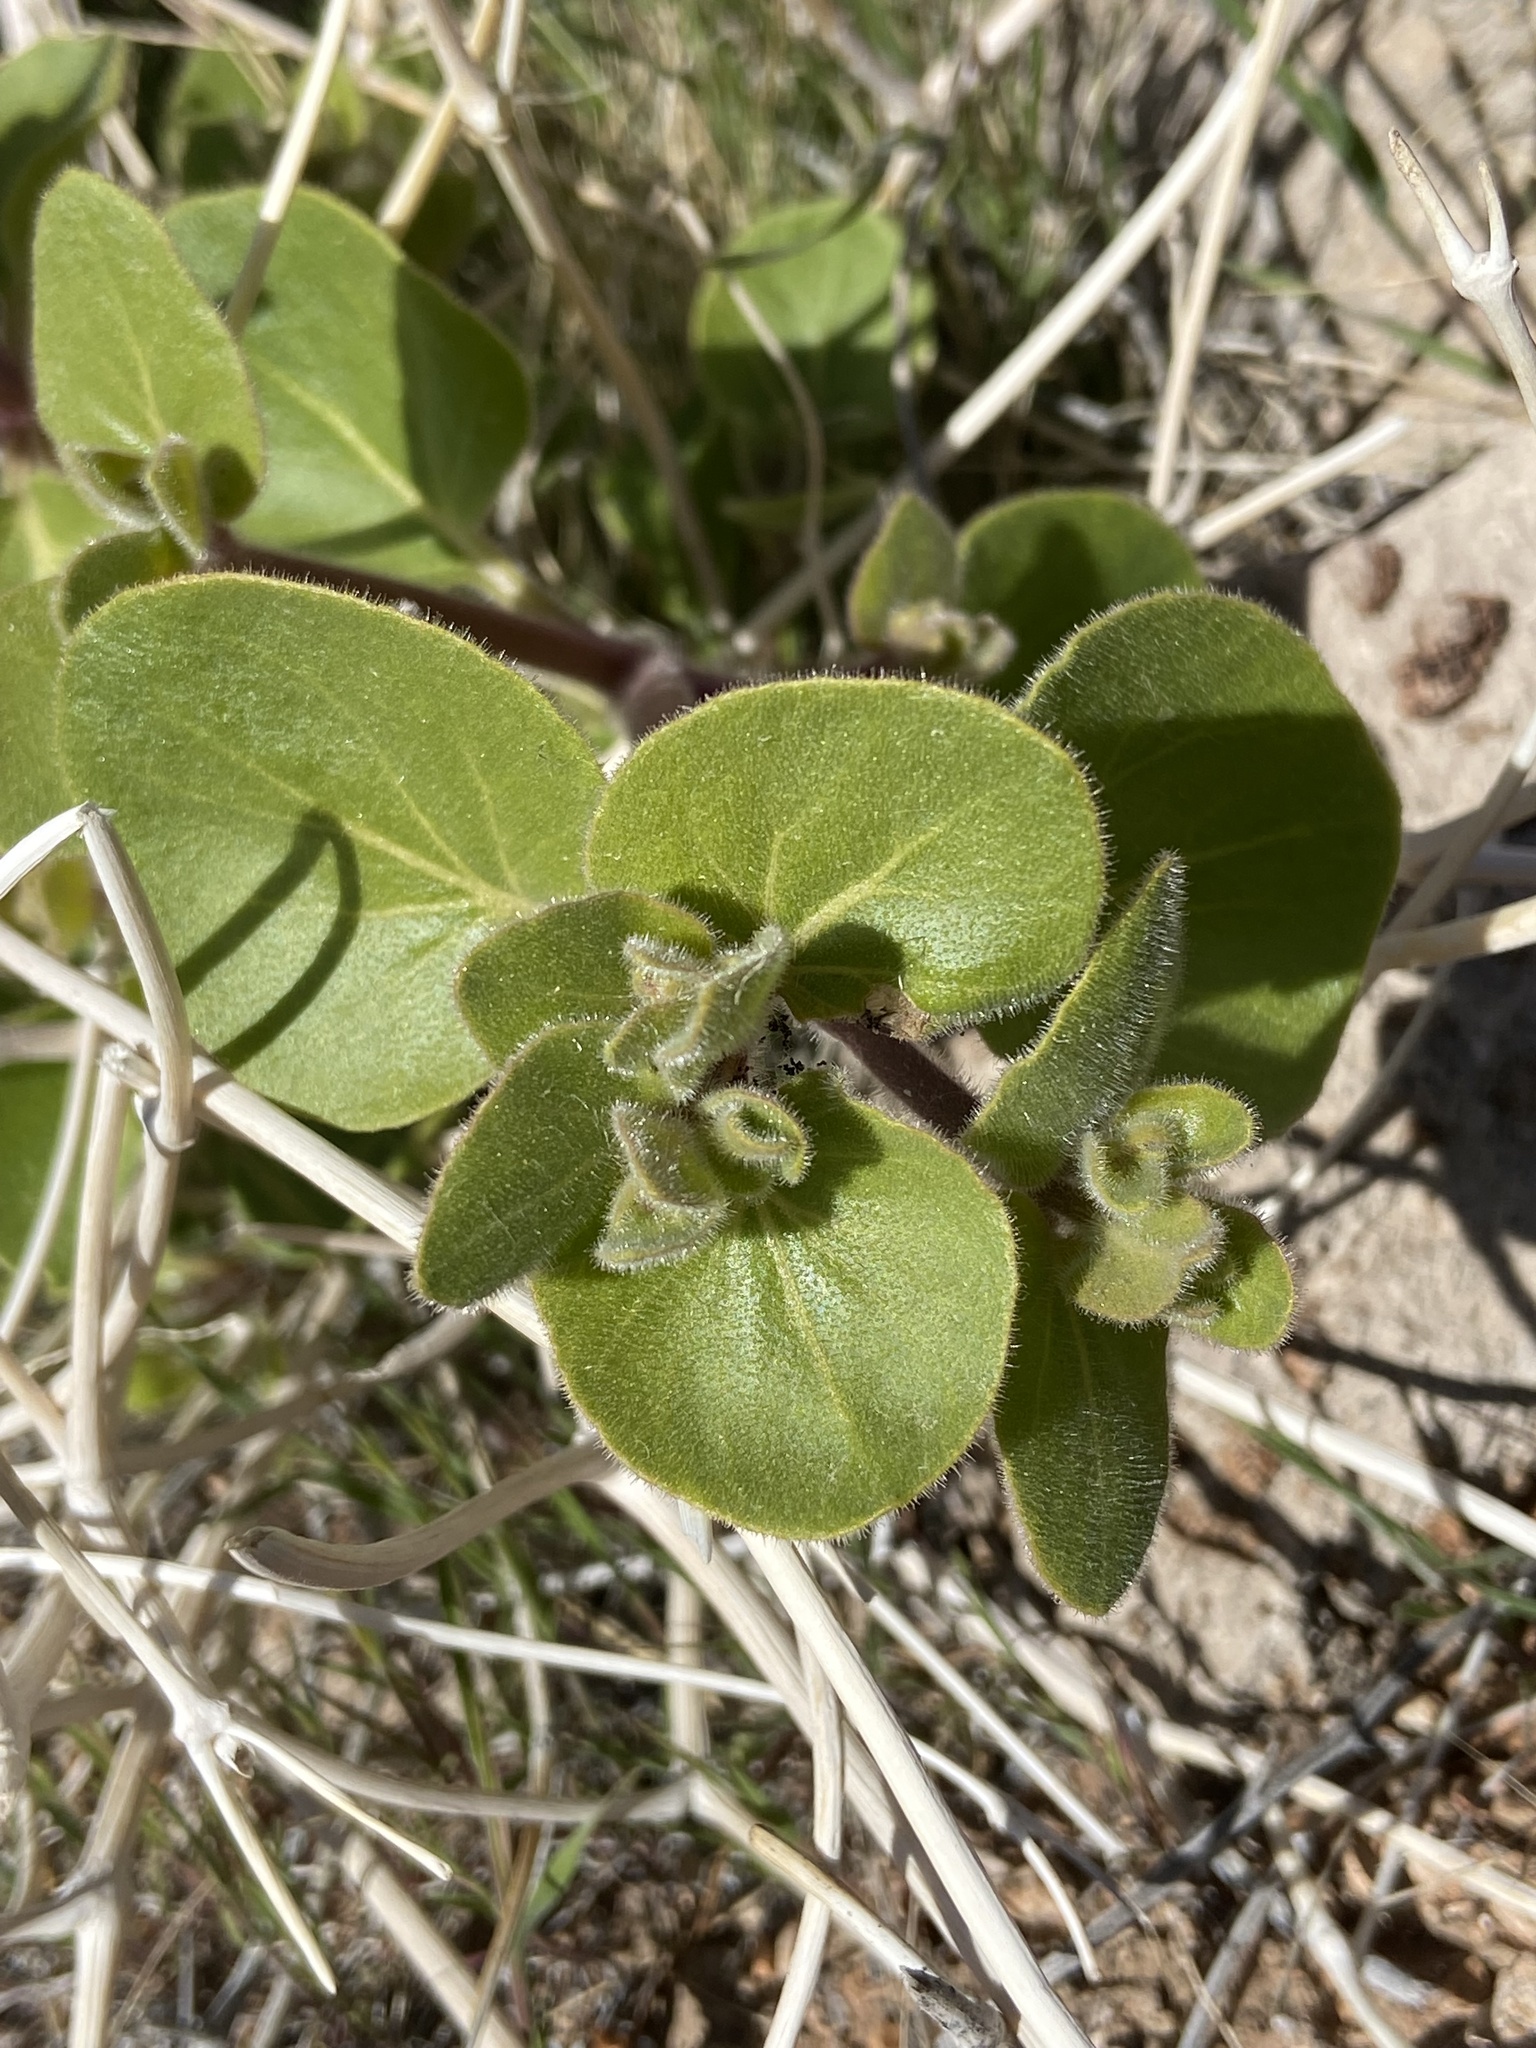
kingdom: Plantae
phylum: Tracheophyta
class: Magnoliopsida
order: Caryophyllales
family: Nyctaginaceae
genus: Mirabilis
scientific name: Mirabilis laevis
